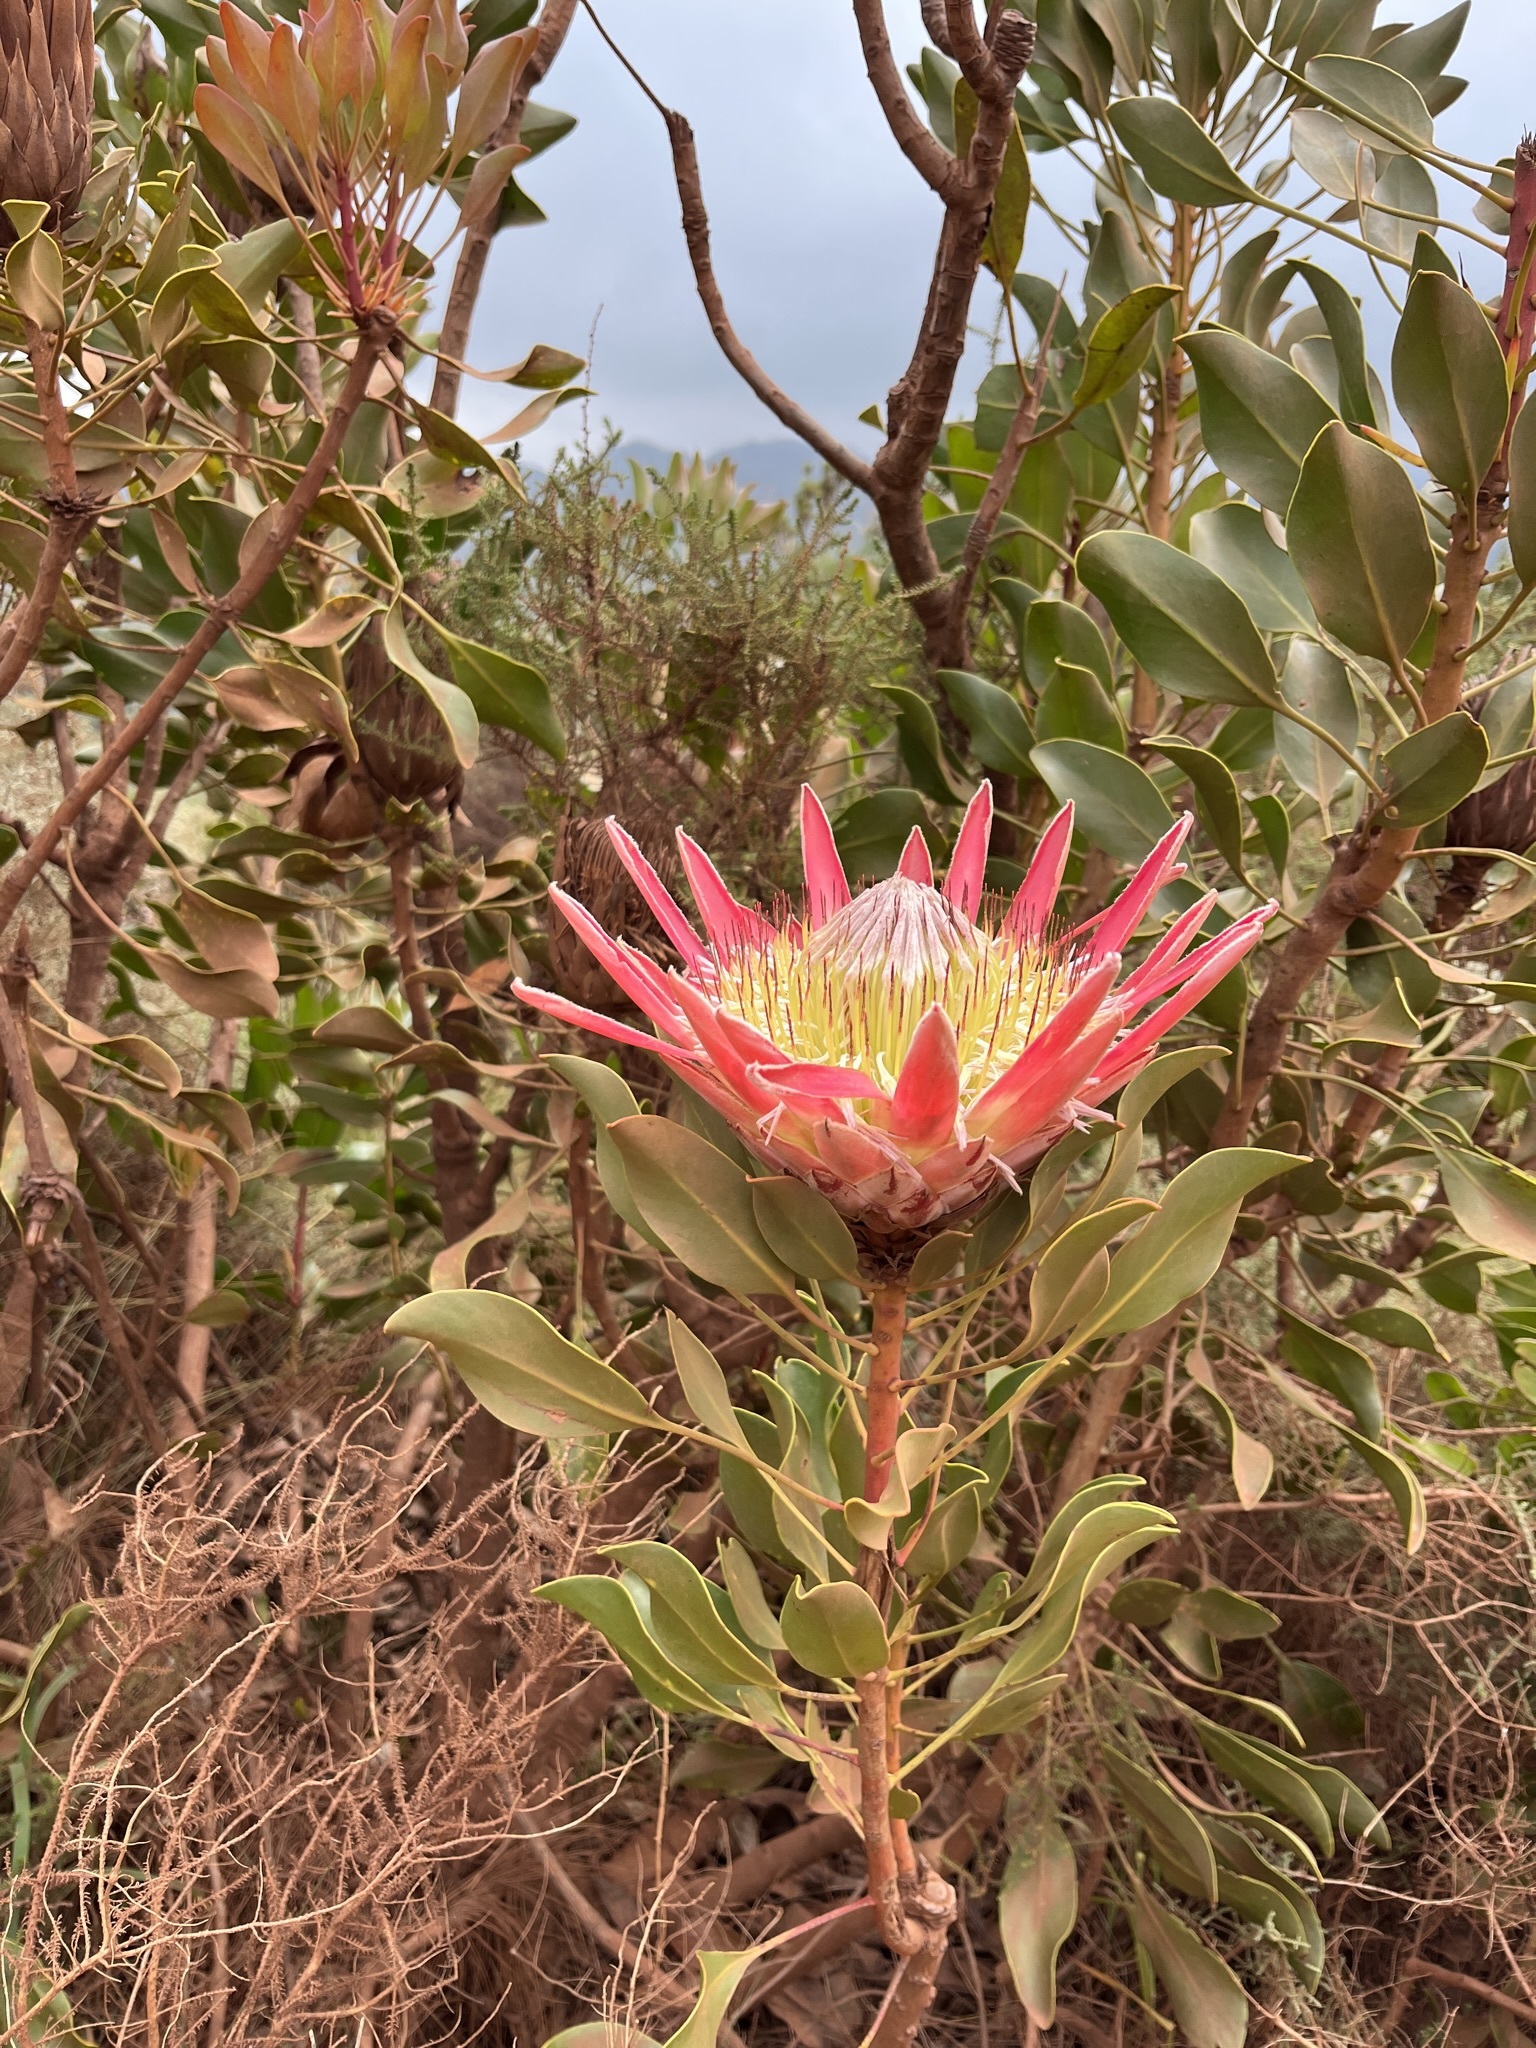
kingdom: Plantae
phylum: Tracheophyta
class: Magnoliopsida
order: Proteales
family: Proteaceae
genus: Protea
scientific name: Protea cynaroides
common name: King protea
